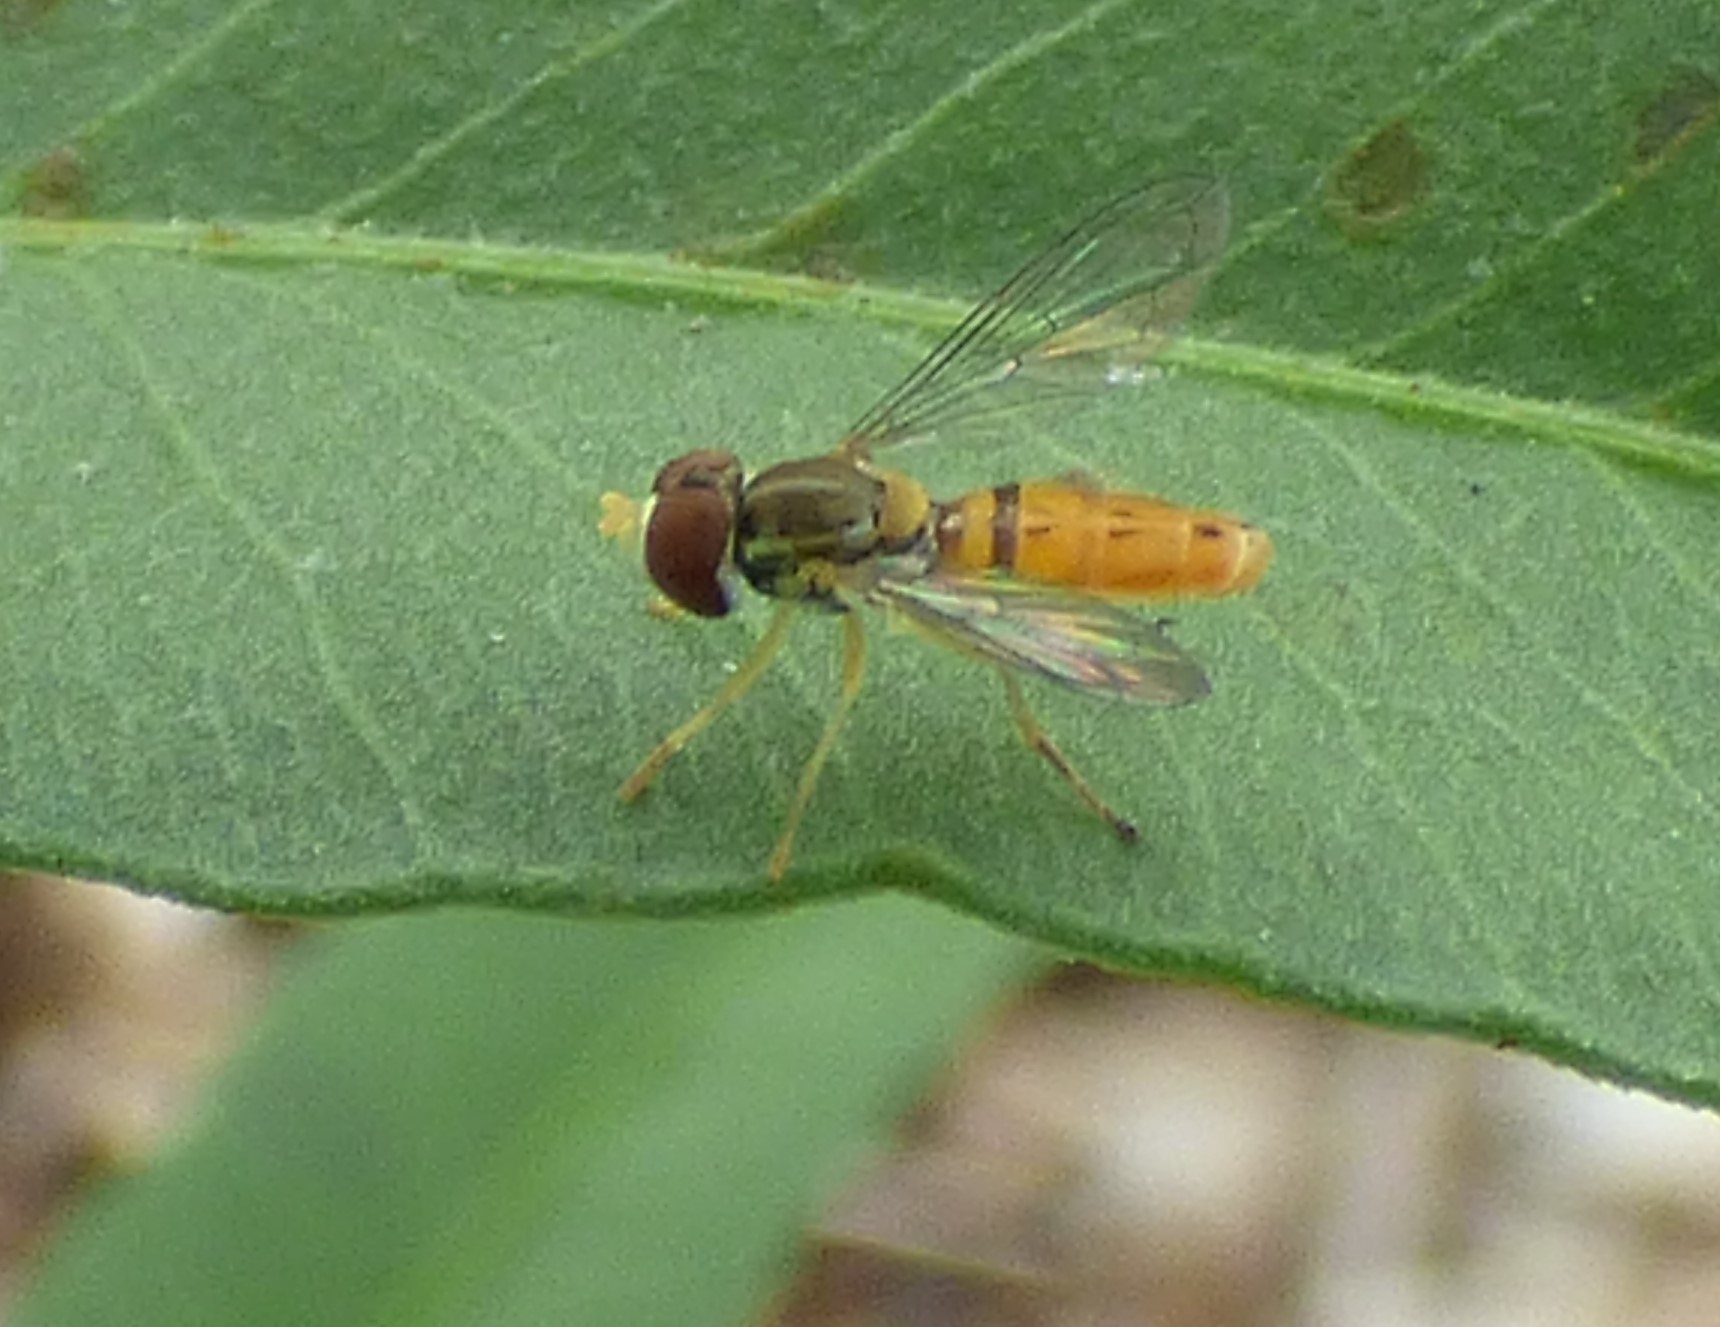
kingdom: Animalia
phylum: Arthropoda
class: Insecta
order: Diptera
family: Syrphidae
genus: Toxomerus
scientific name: Toxomerus marginatus
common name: Syrphid fly
